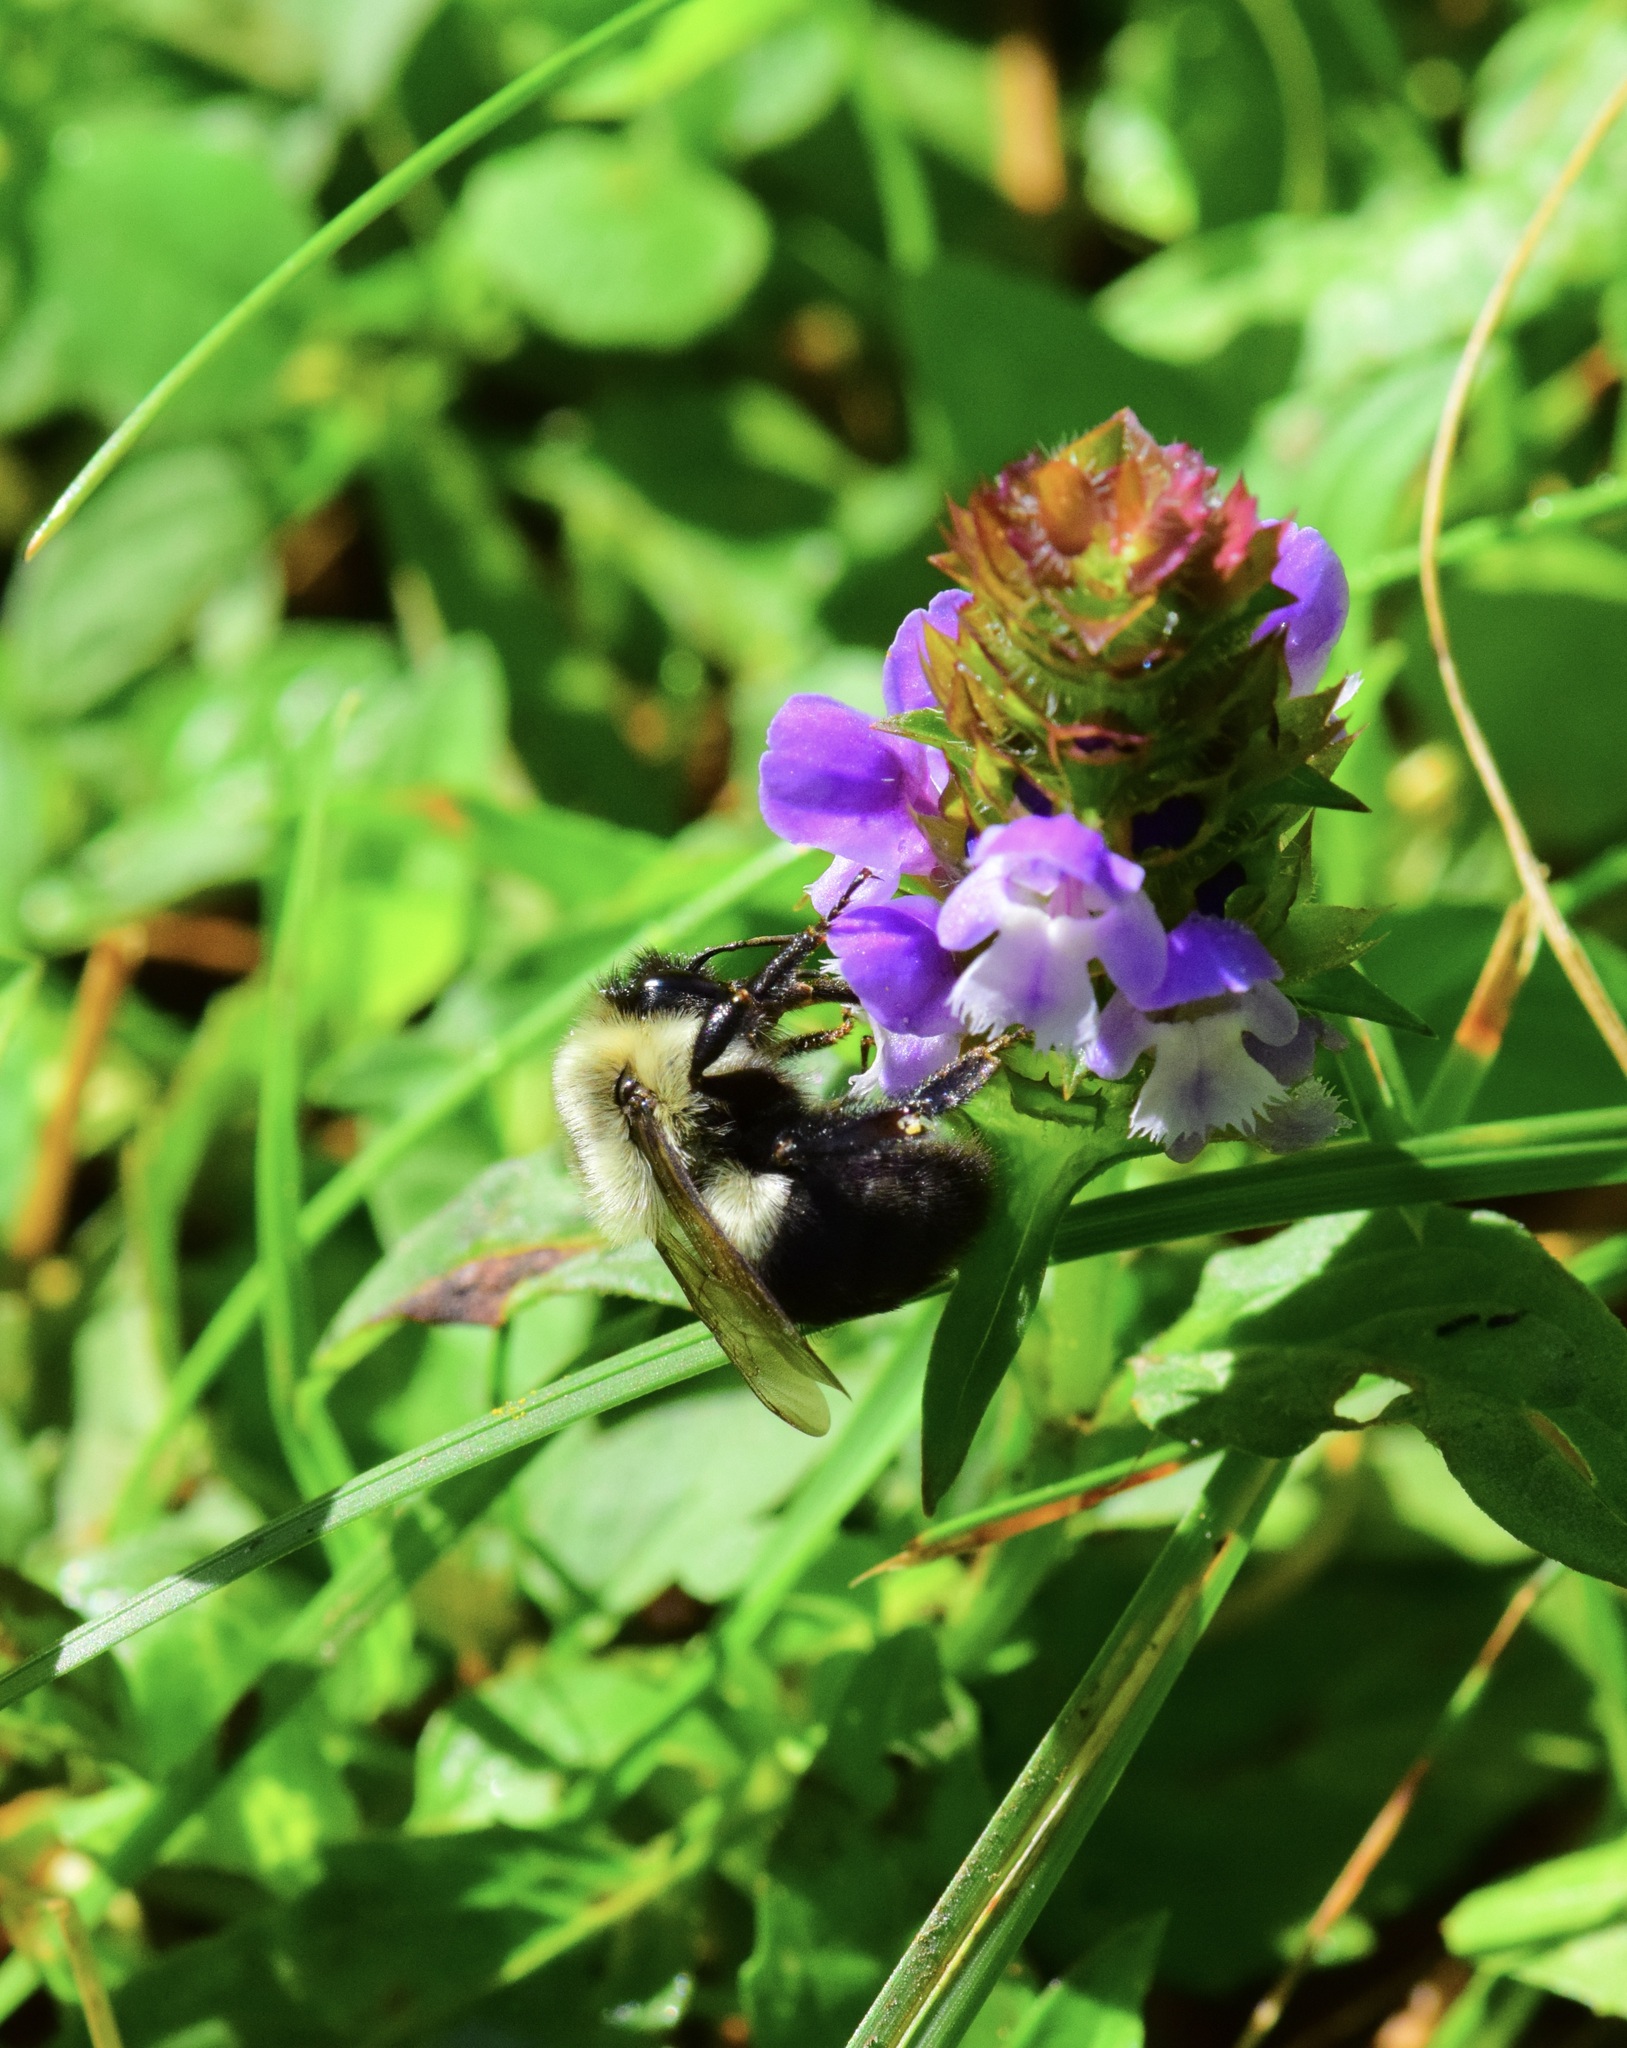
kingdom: Animalia
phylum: Arthropoda
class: Insecta
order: Hymenoptera
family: Apidae
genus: Bombus
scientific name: Bombus impatiens
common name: Common eastern bumble bee
